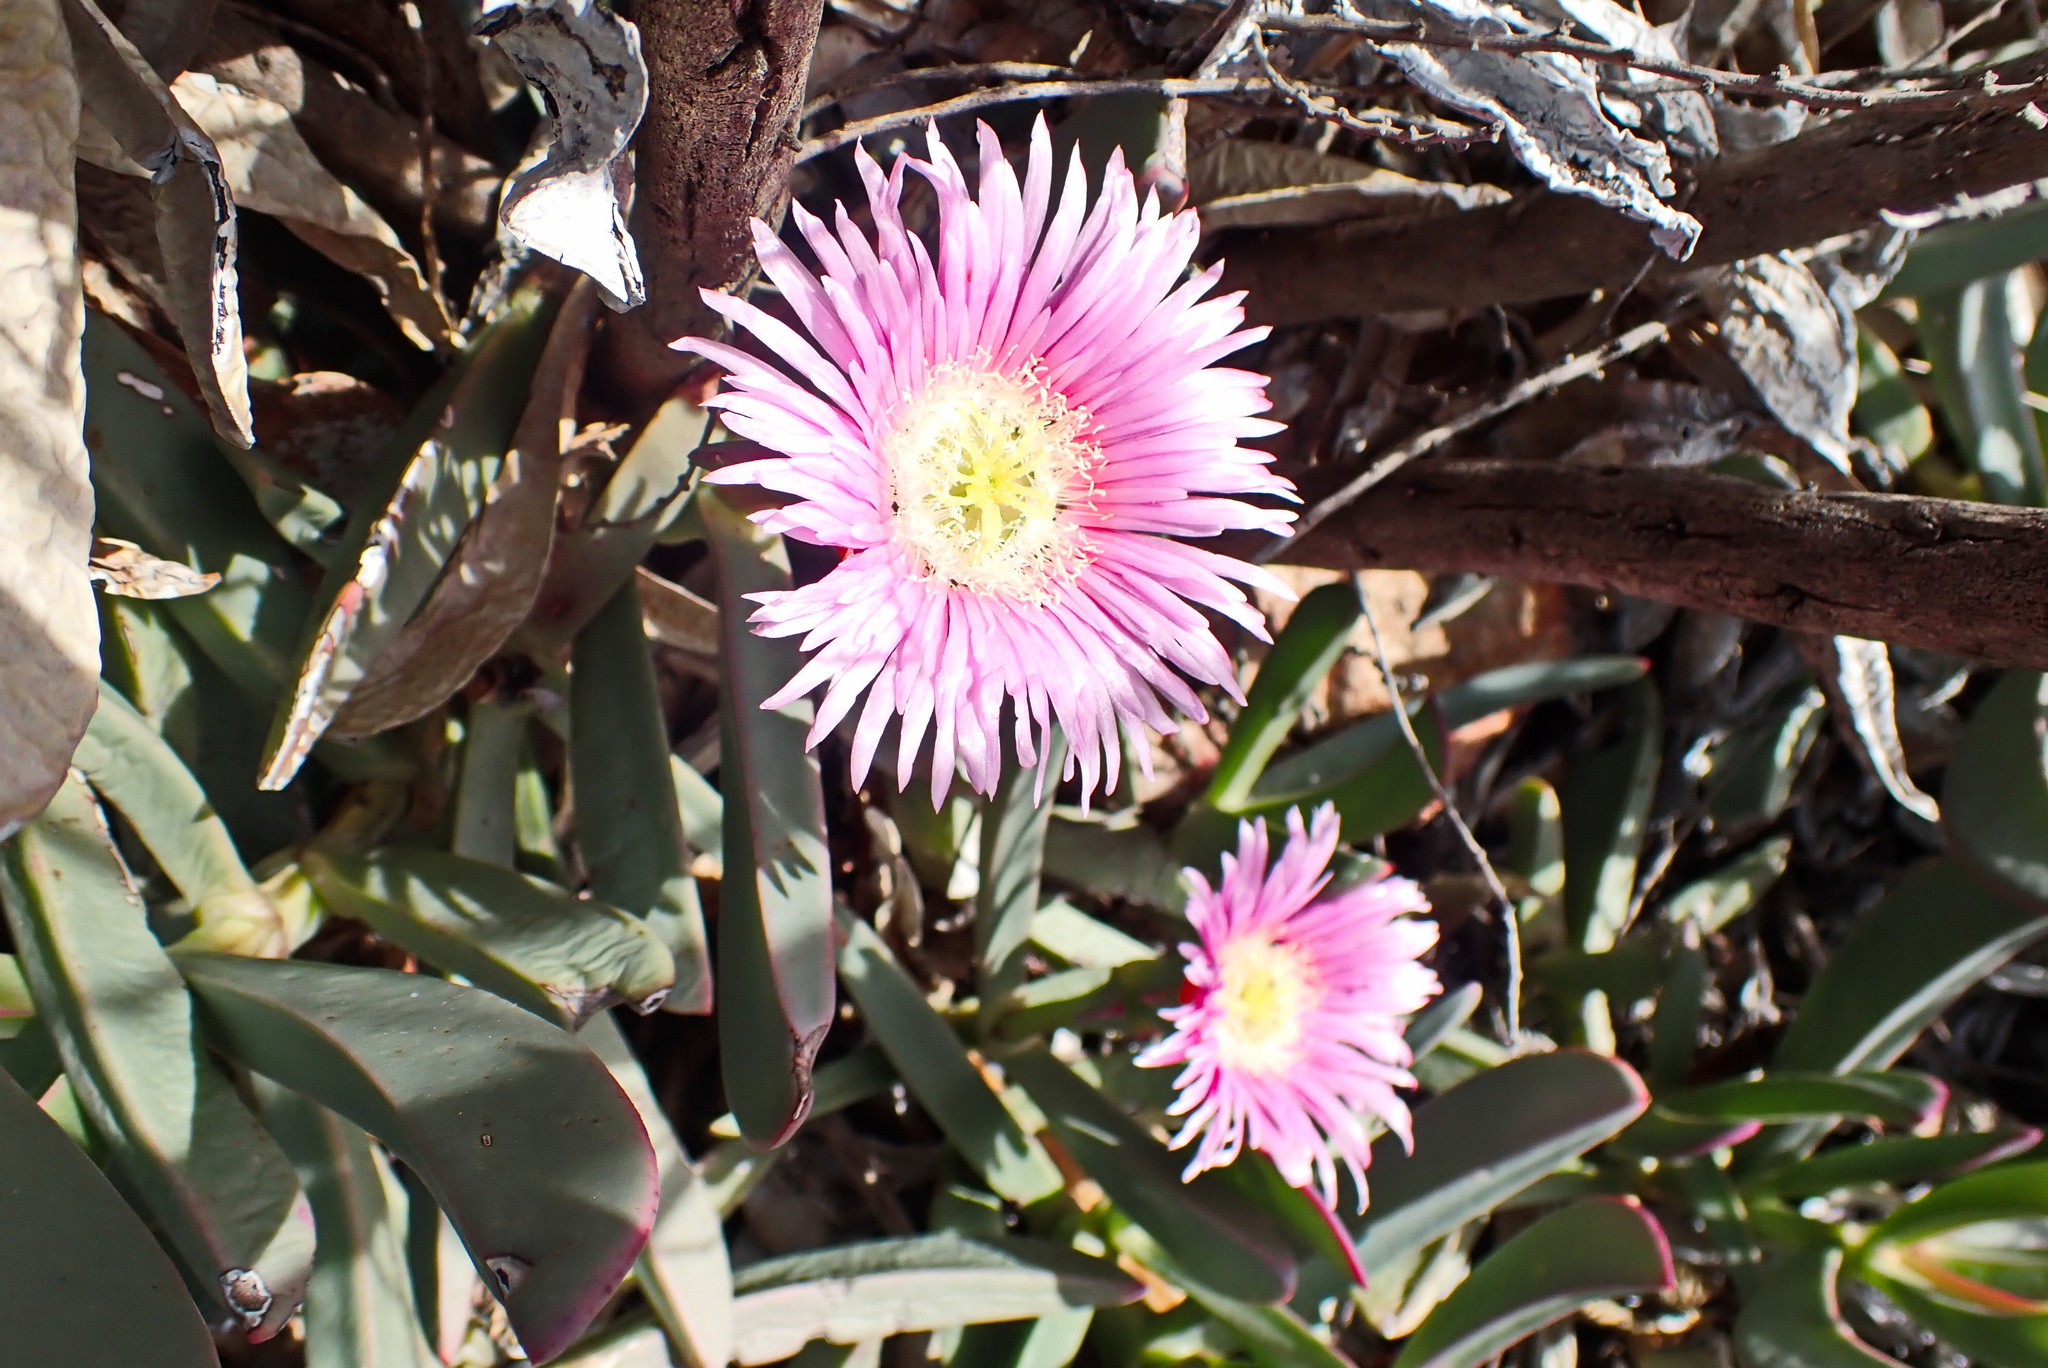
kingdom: Plantae
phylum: Tracheophyta
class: Magnoliopsida
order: Caryophyllales
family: Aizoaceae
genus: Carpobrotus
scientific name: Carpobrotus mellei
